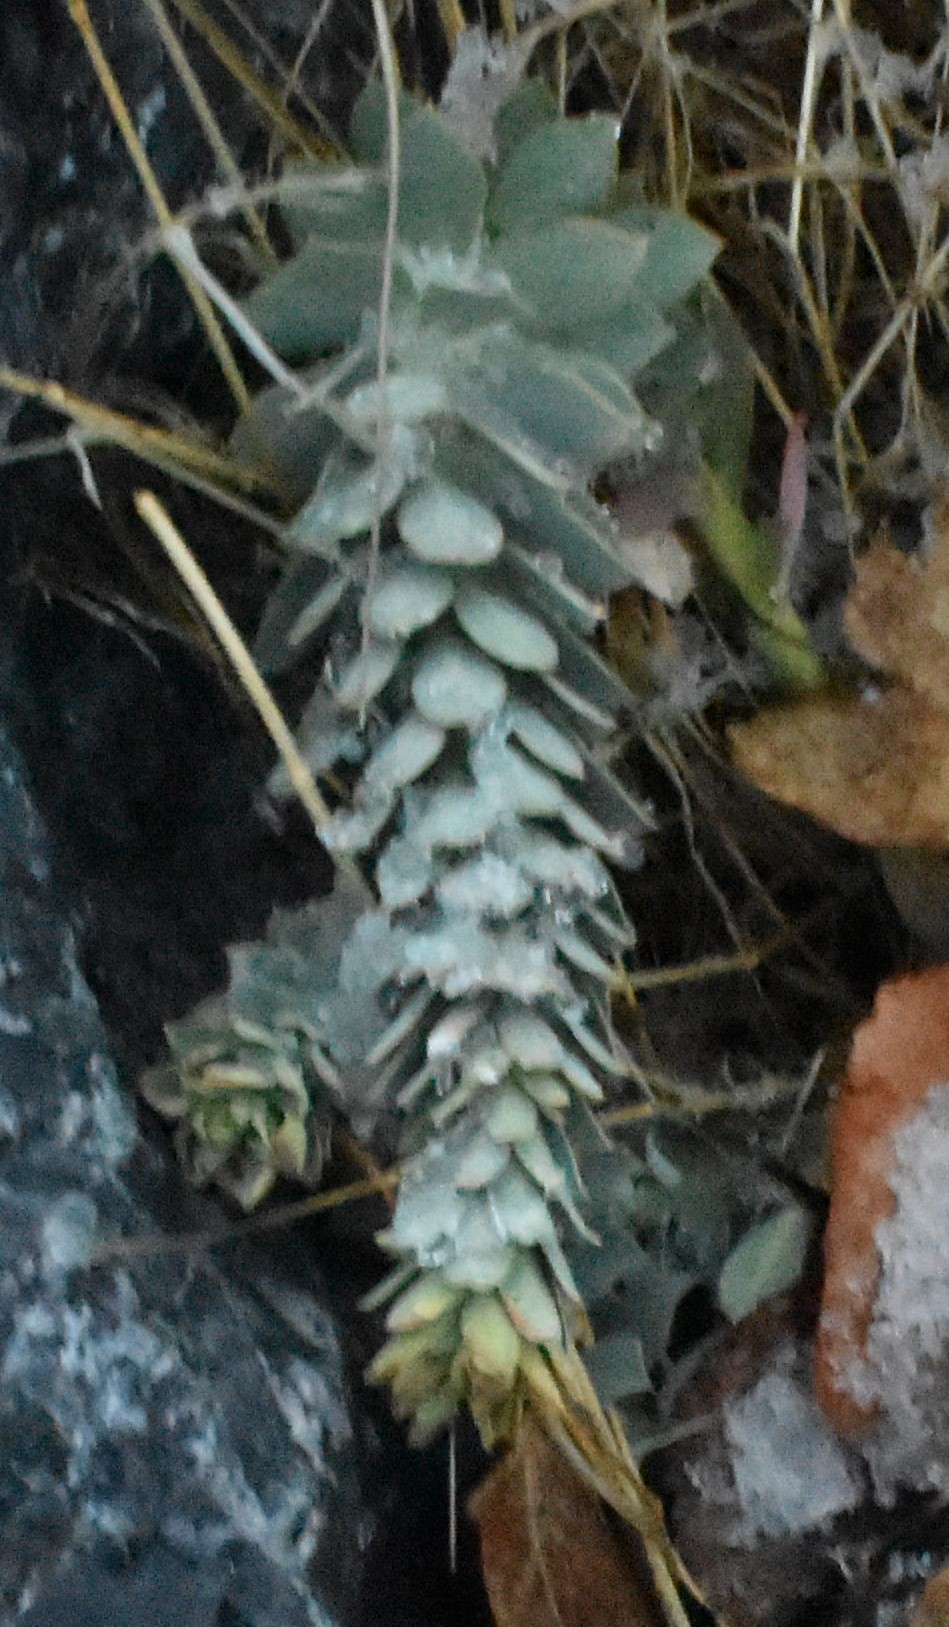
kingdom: Plantae
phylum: Tracheophyta
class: Magnoliopsida
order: Malpighiales
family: Euphorbiaceae
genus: Euphorbia
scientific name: Euphorbia myrsinites
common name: Myrtle spurge
